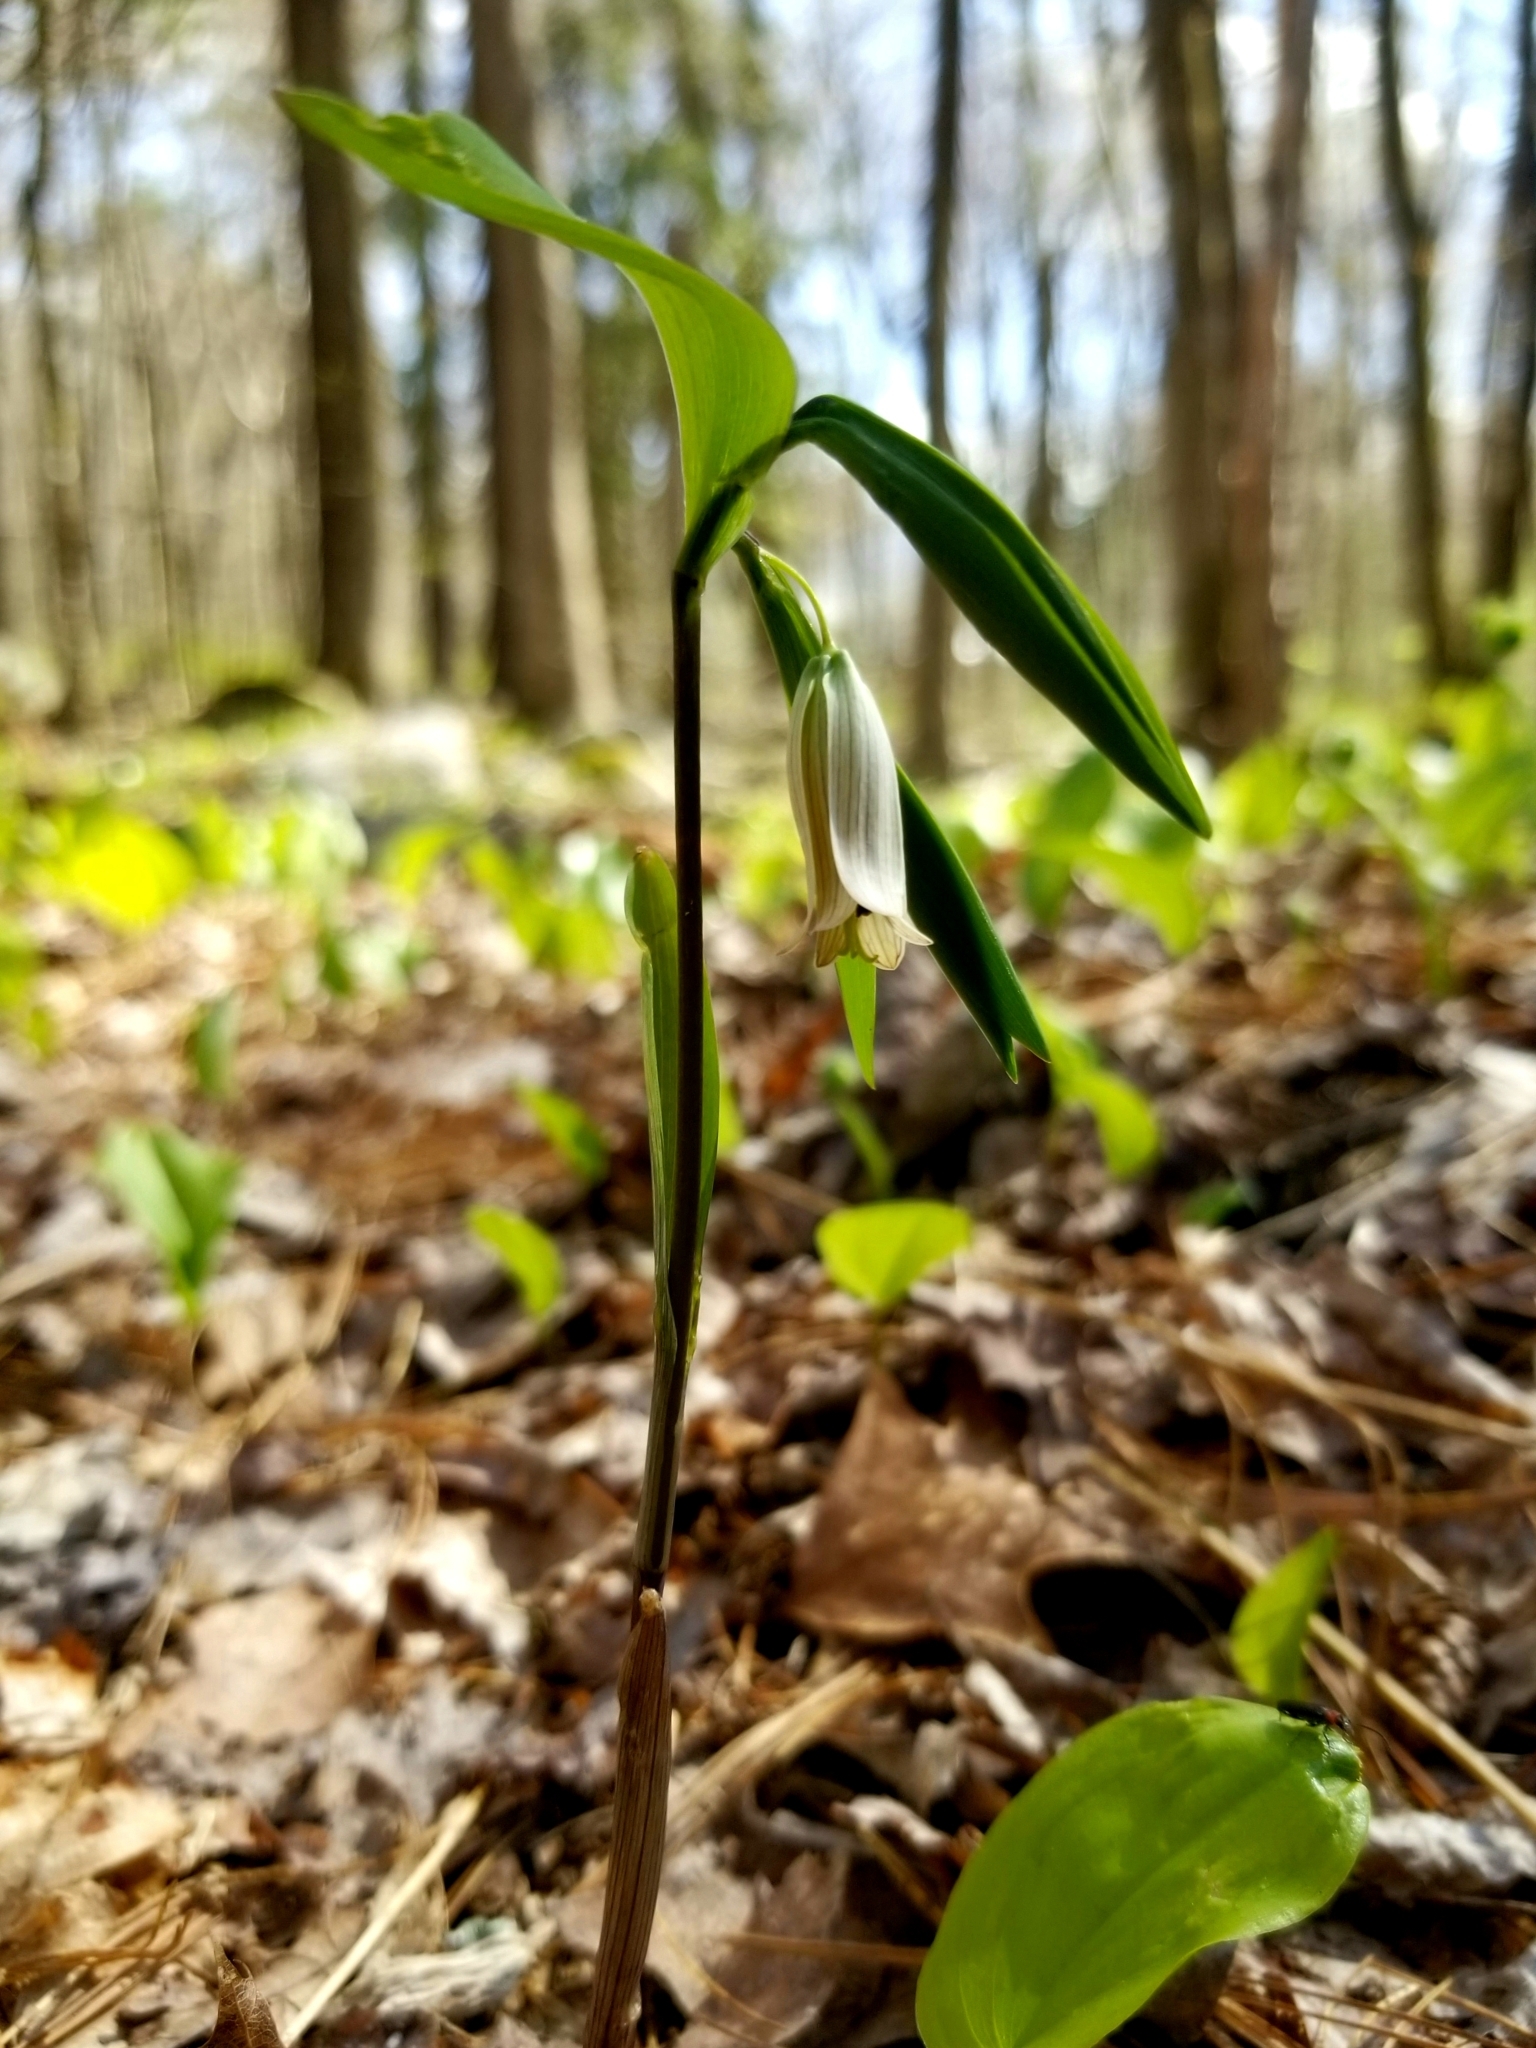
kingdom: Plantae
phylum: Tracheophyta
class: Liliopsida
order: Liliales
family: Colchicaceae
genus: Uvularia
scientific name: Uvularia sessilifolia
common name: Straw-lily
